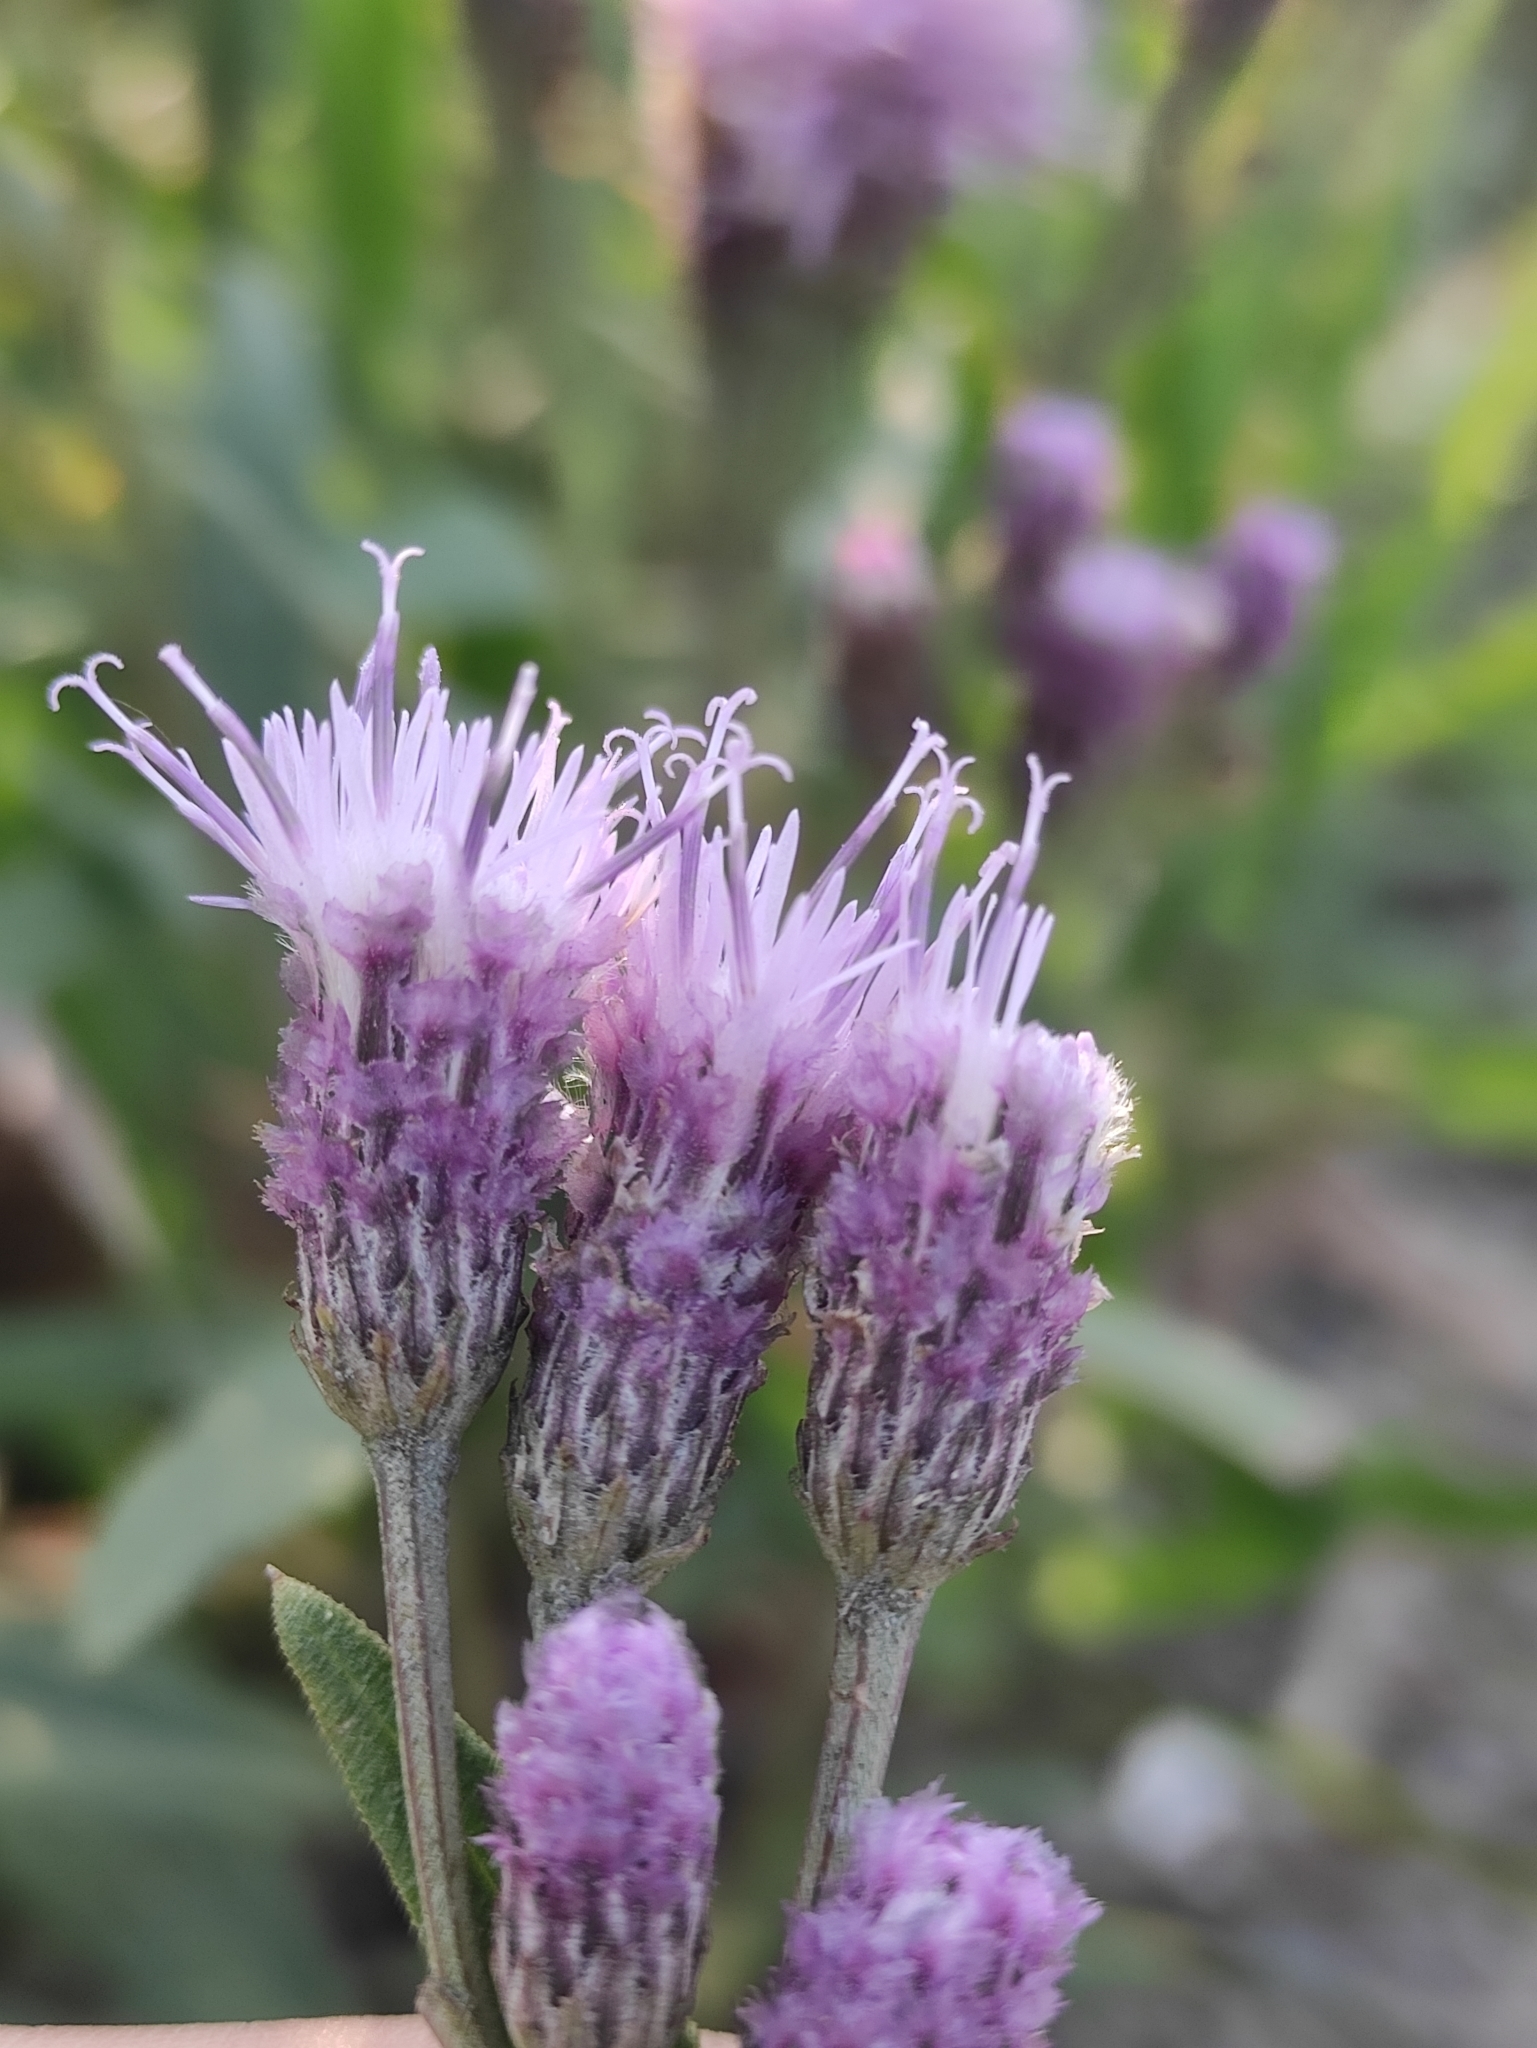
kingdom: Plantae
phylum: Tracheophyta
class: Magnoliopsida
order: Asterales
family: Asteraceae
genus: Saussurea
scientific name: Saussurea amara
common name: Alberta sawwort
